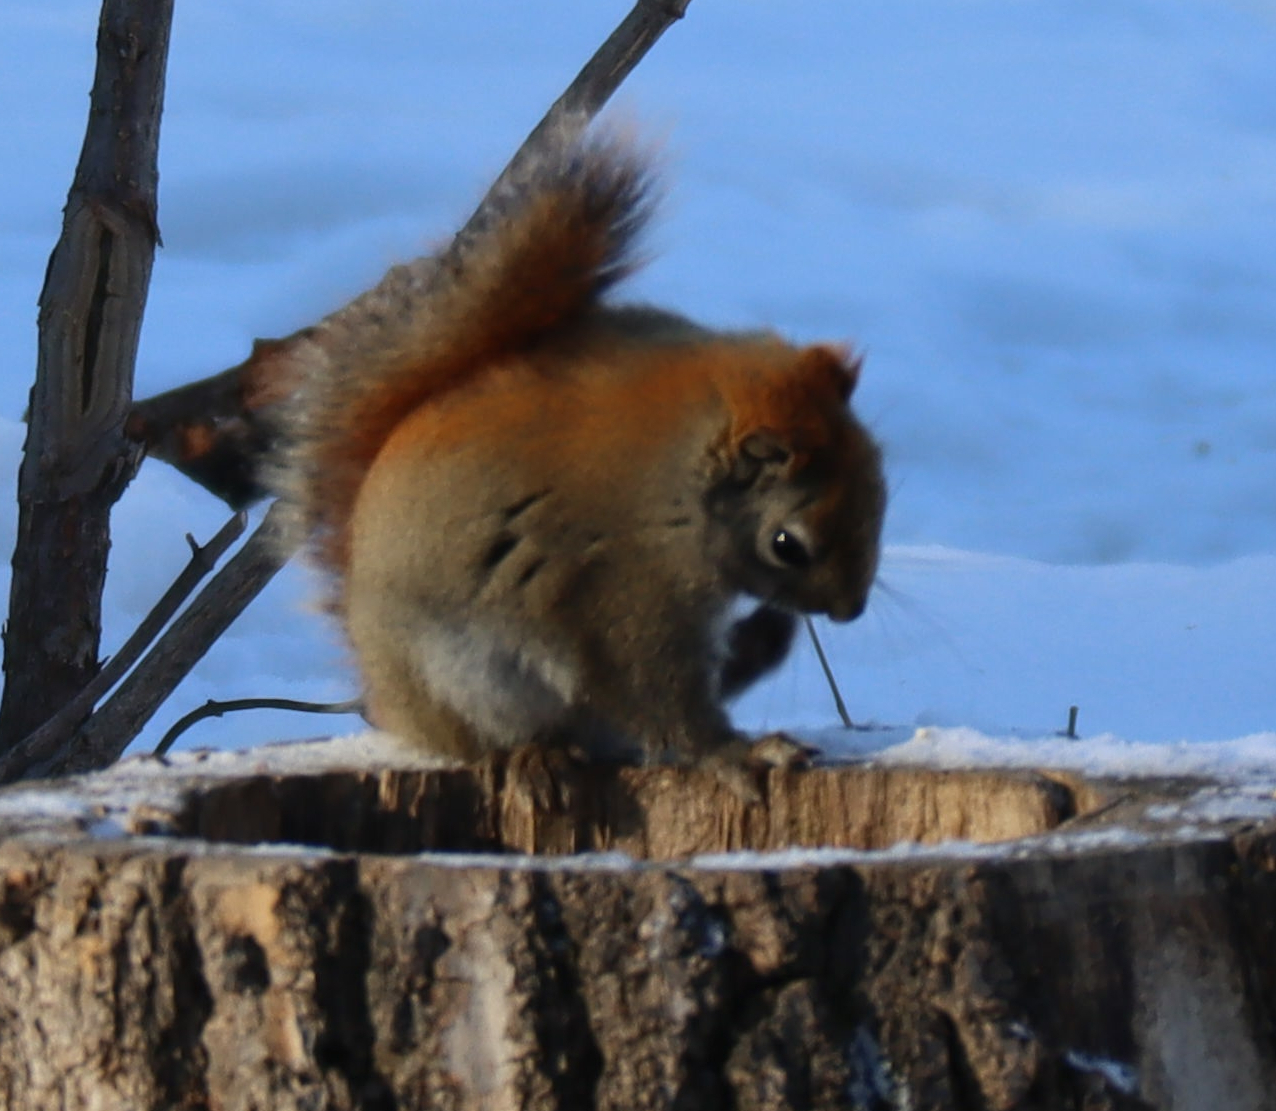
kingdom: Animalia
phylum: Chordata
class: Mammalia
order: Rodentia
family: Sciuridae
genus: Tamiasciurus
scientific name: Tamiasciurus hudsonicus
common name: Red squirrel
